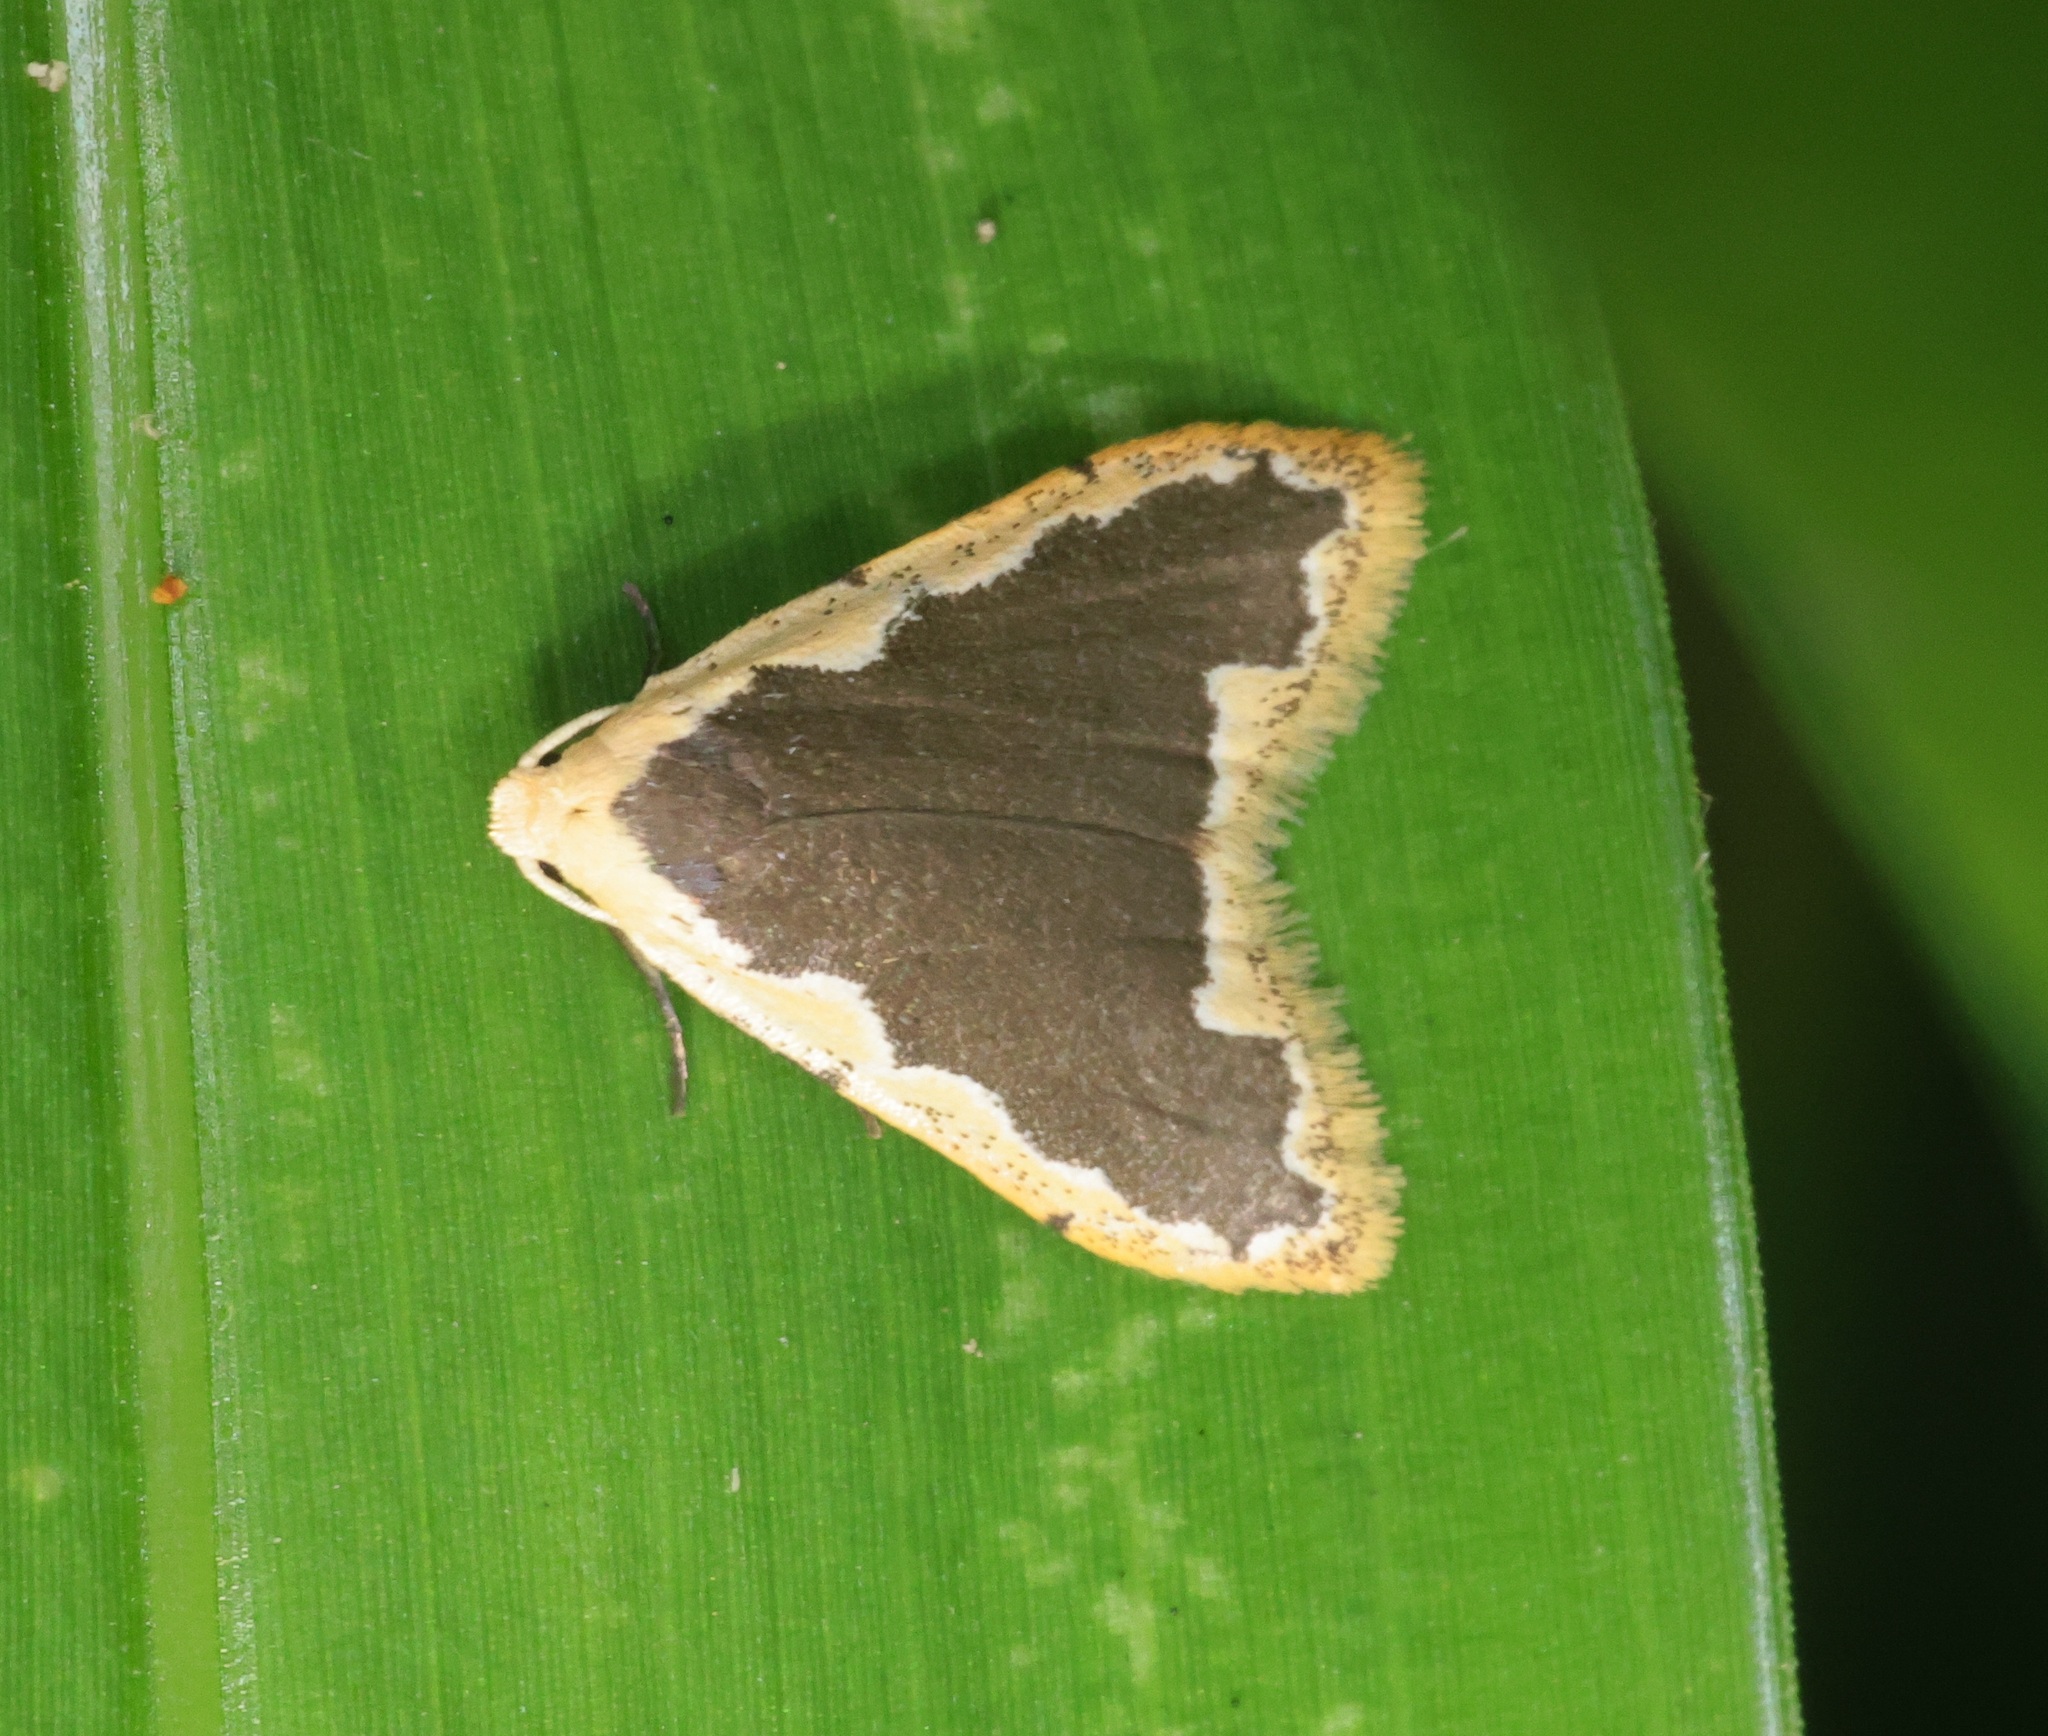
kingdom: Animalia
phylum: Arthropoda
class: Insecta
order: Lepidoptera
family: Erebidae
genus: Diduga
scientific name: Diduga flavicostata
